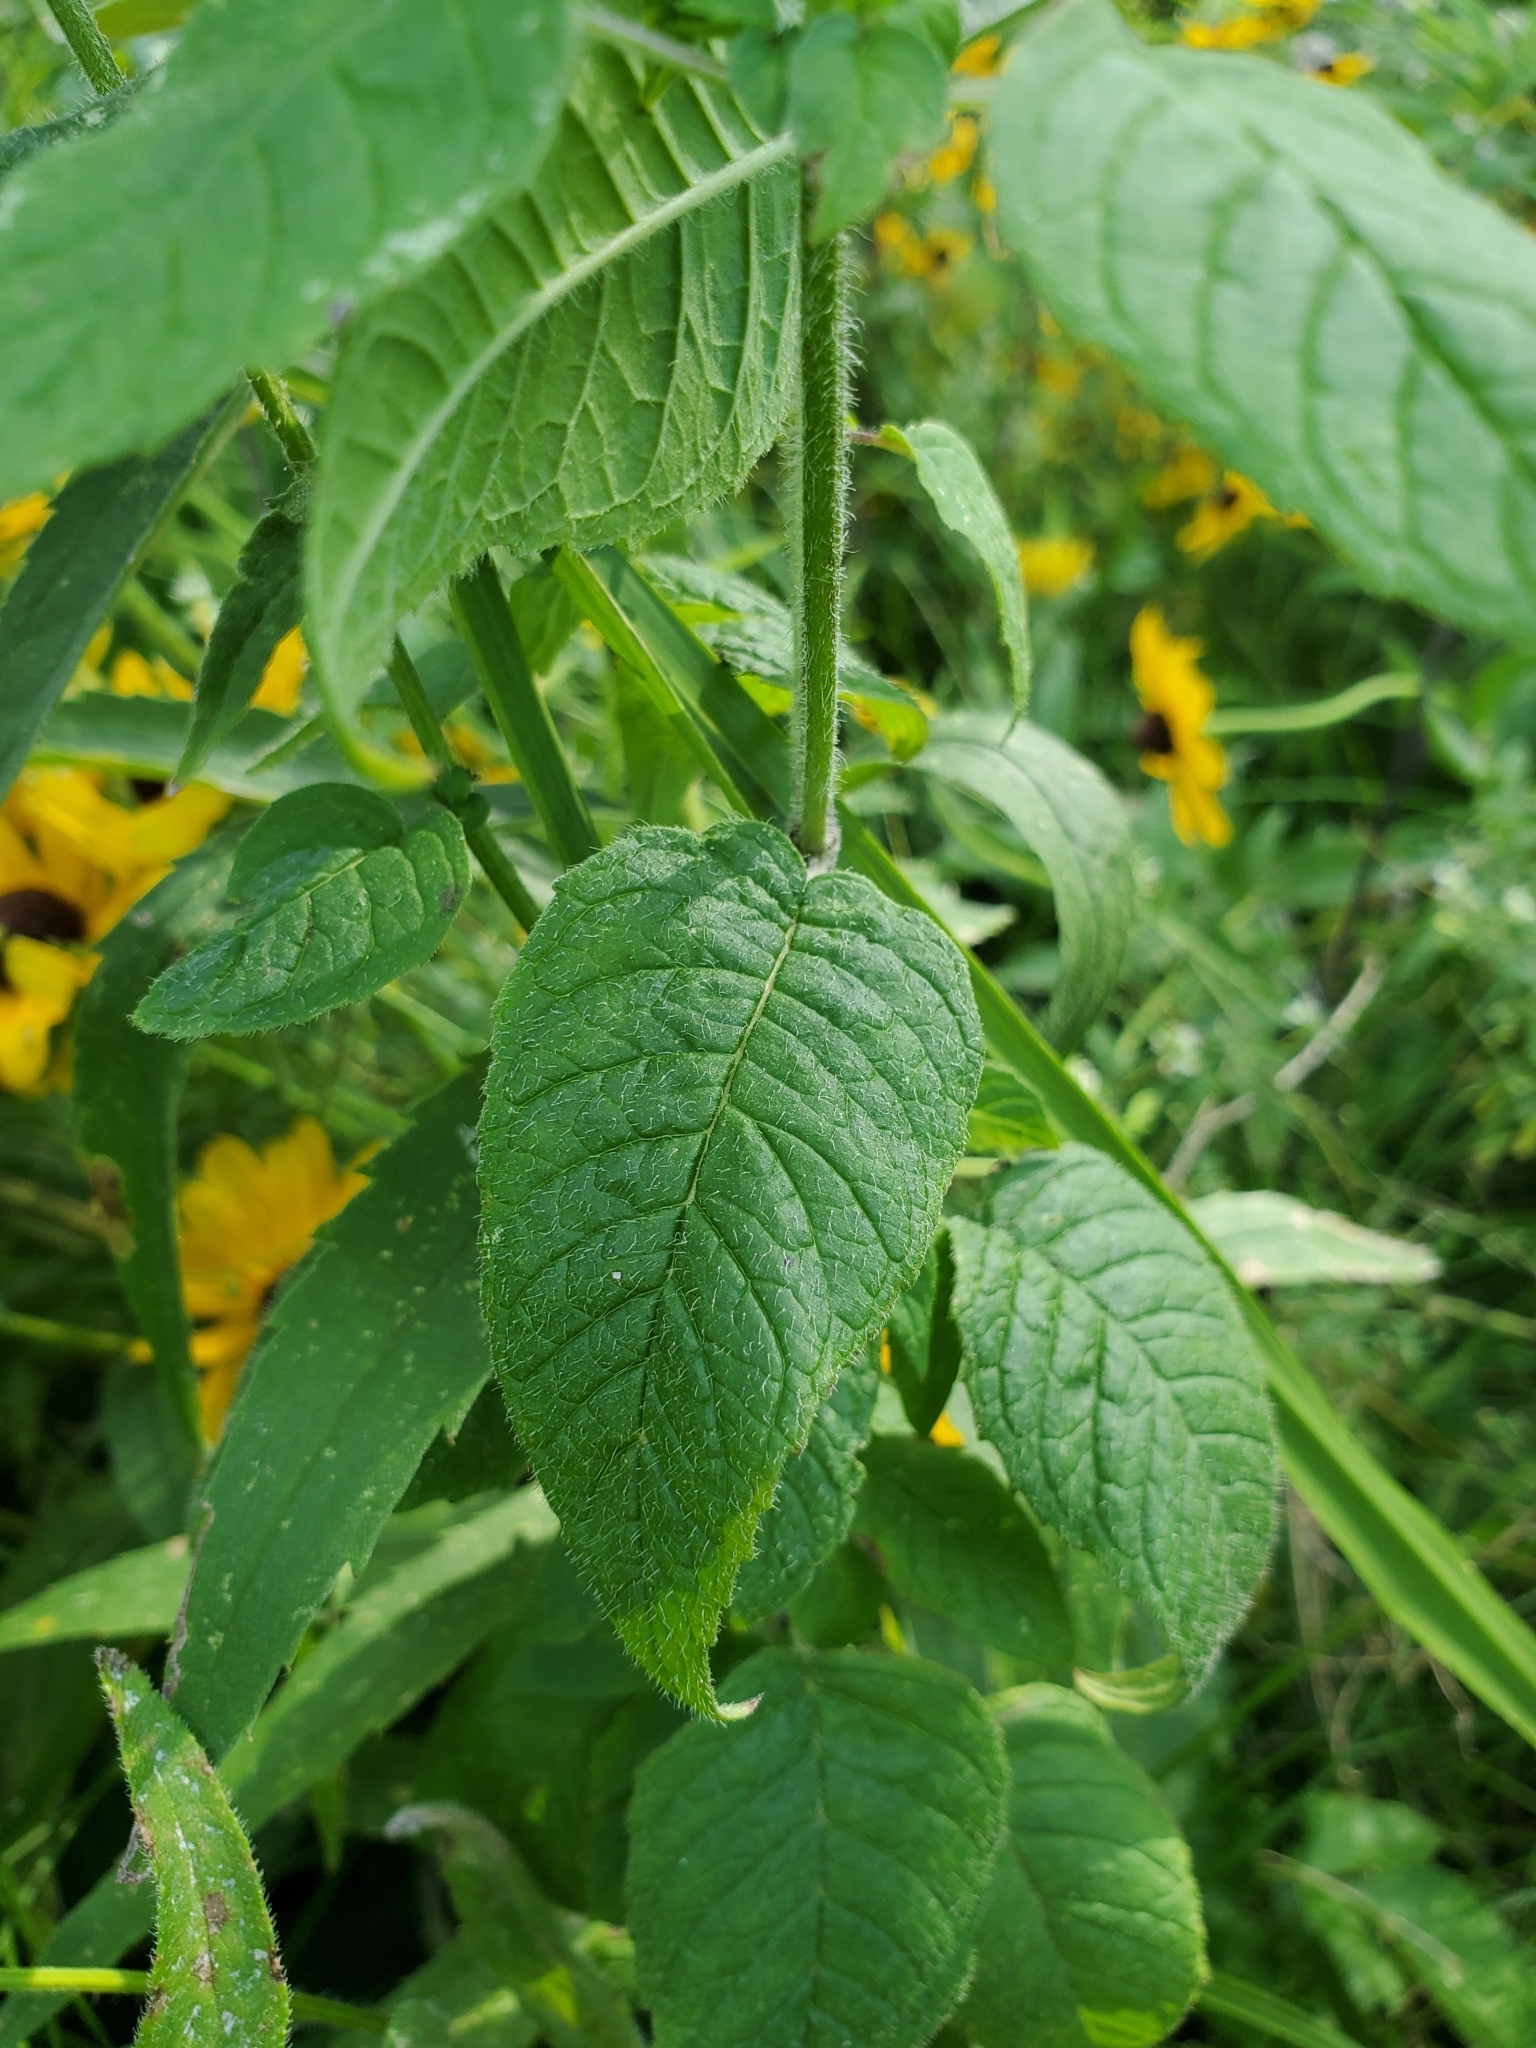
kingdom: Plantae
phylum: Tracheophyta
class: Magnoliopsida
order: Lamiales
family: Lamiaceae
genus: Blephilia
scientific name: Blephilia hirsuta
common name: Hairy blephilia
